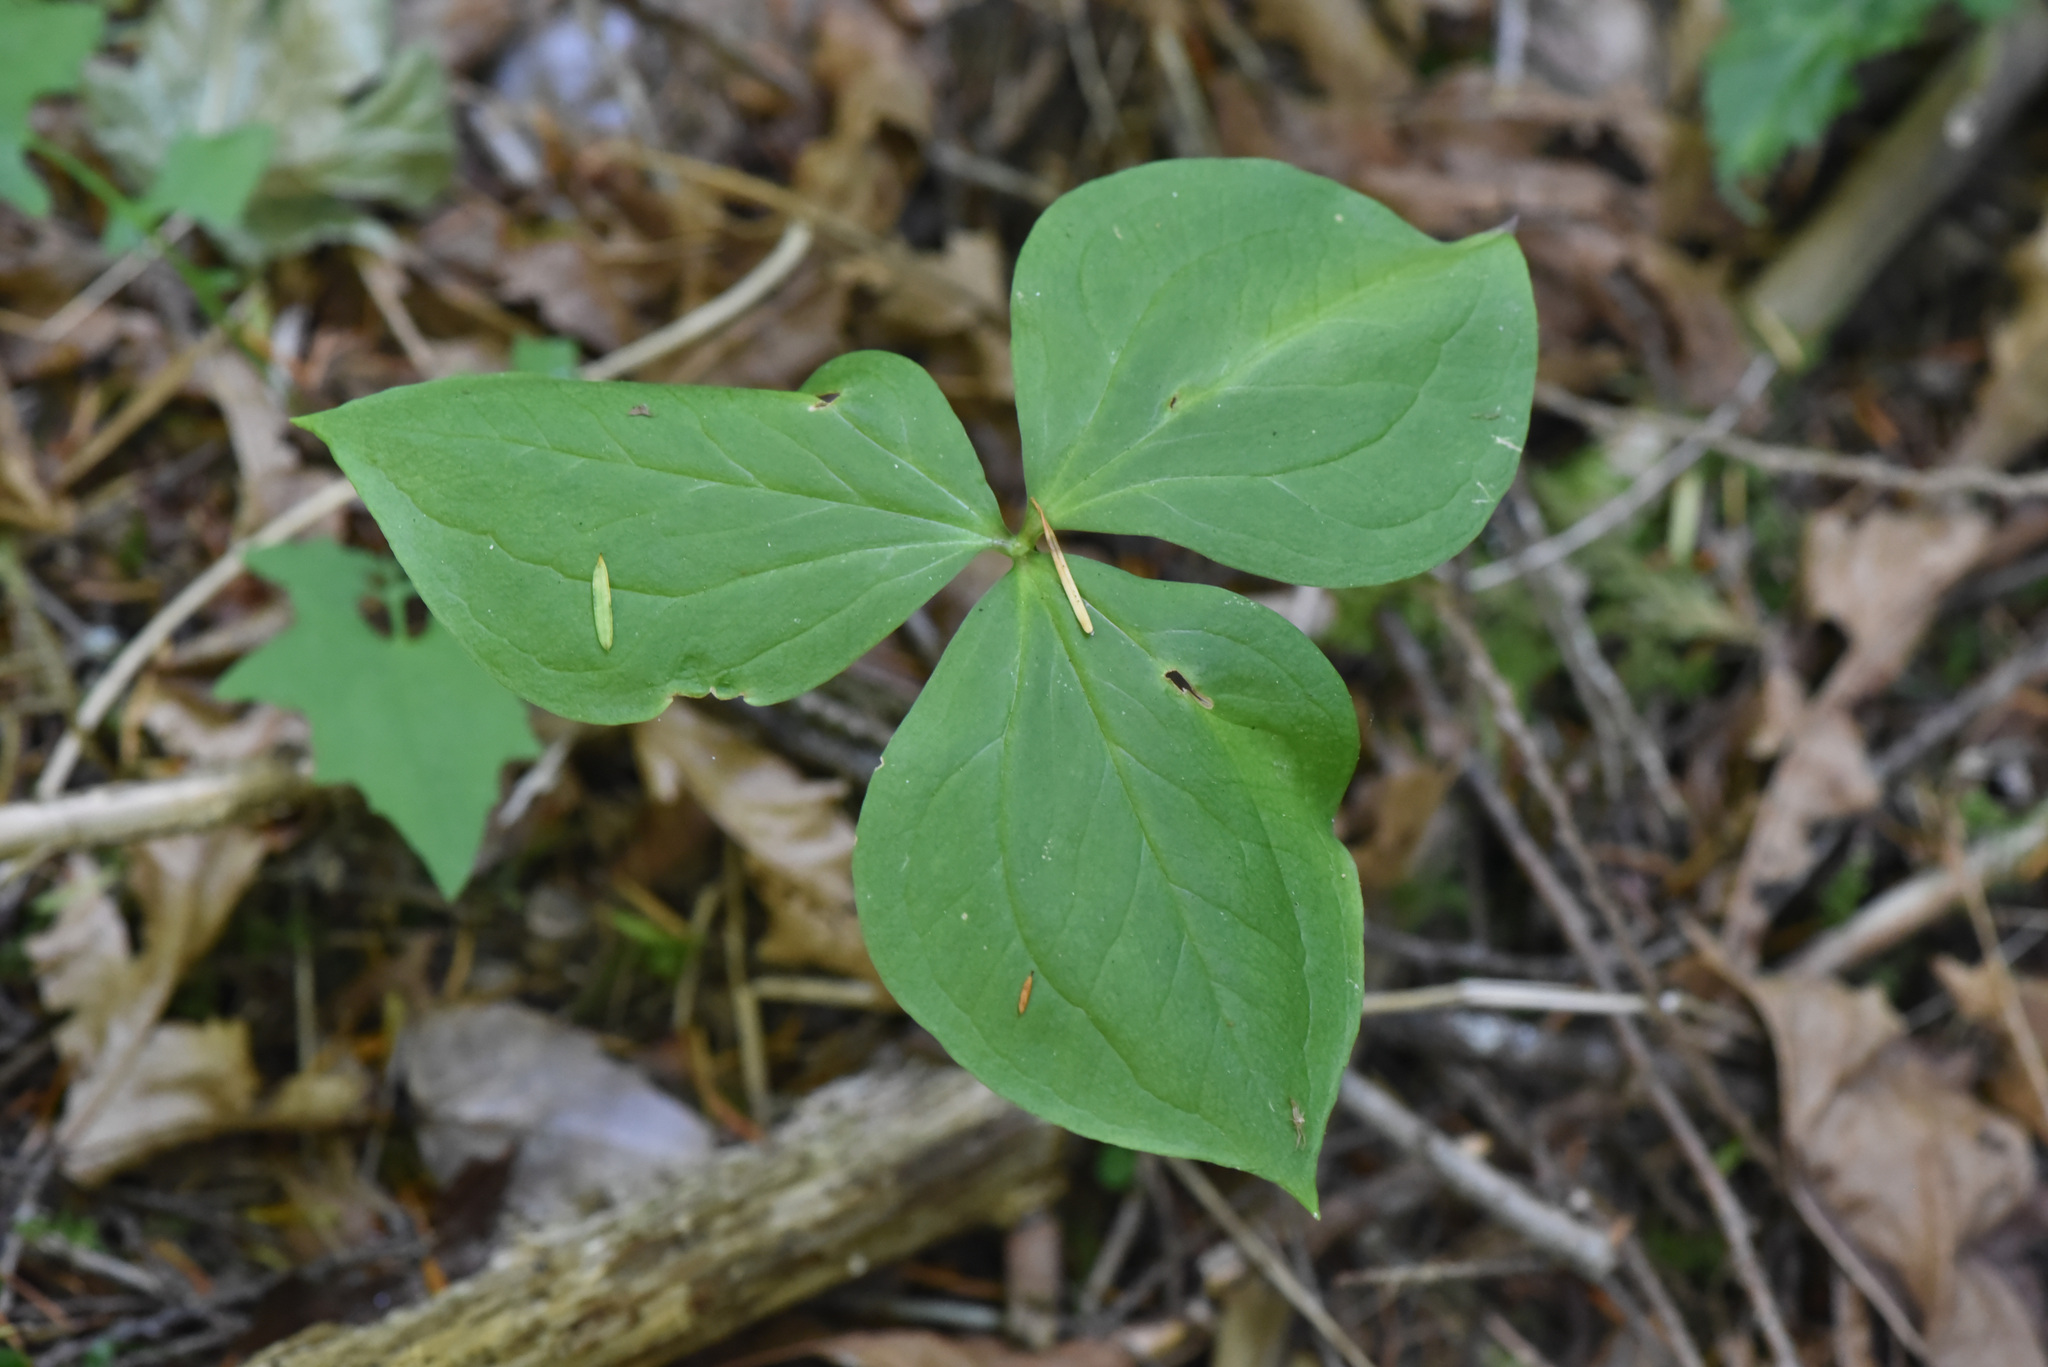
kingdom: Plantae
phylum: Tracheophyta
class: Liliopsida
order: Liliales
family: Melanthiaceae
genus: Trillium
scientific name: Trillium ovatum
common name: Pacific trillium
